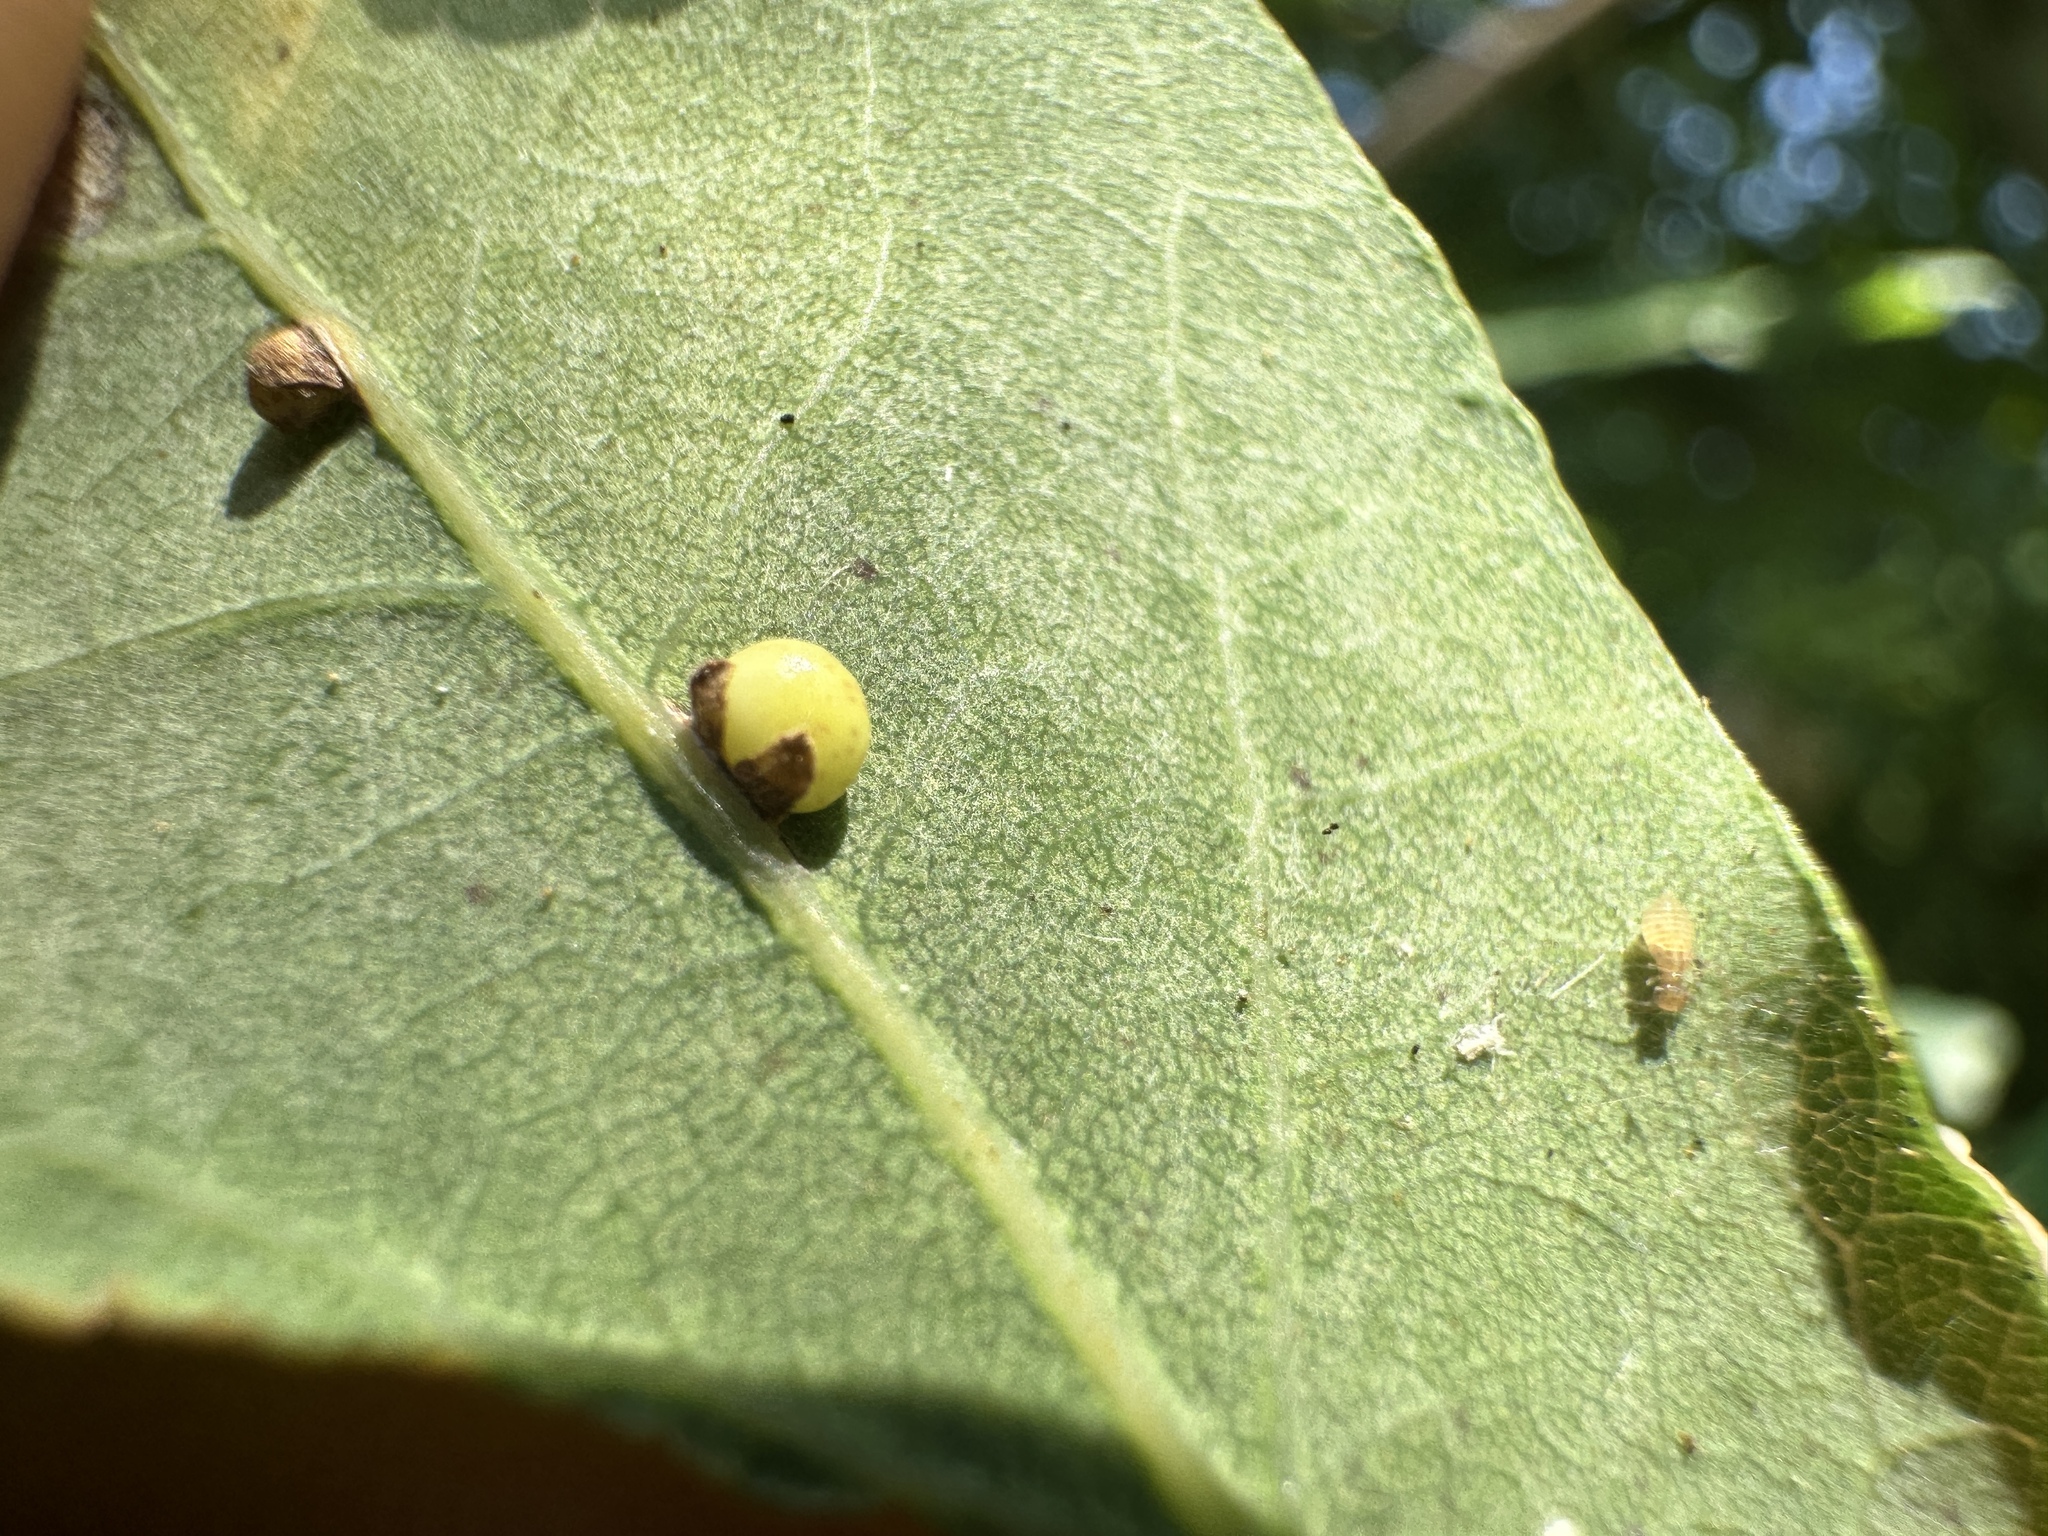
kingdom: Animalia
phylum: Arthropoda
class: Insecta
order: Hymenoptera
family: Cynipidae
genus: Neuroterus
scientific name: Neuroterus anthracinus
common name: Oyster gall
